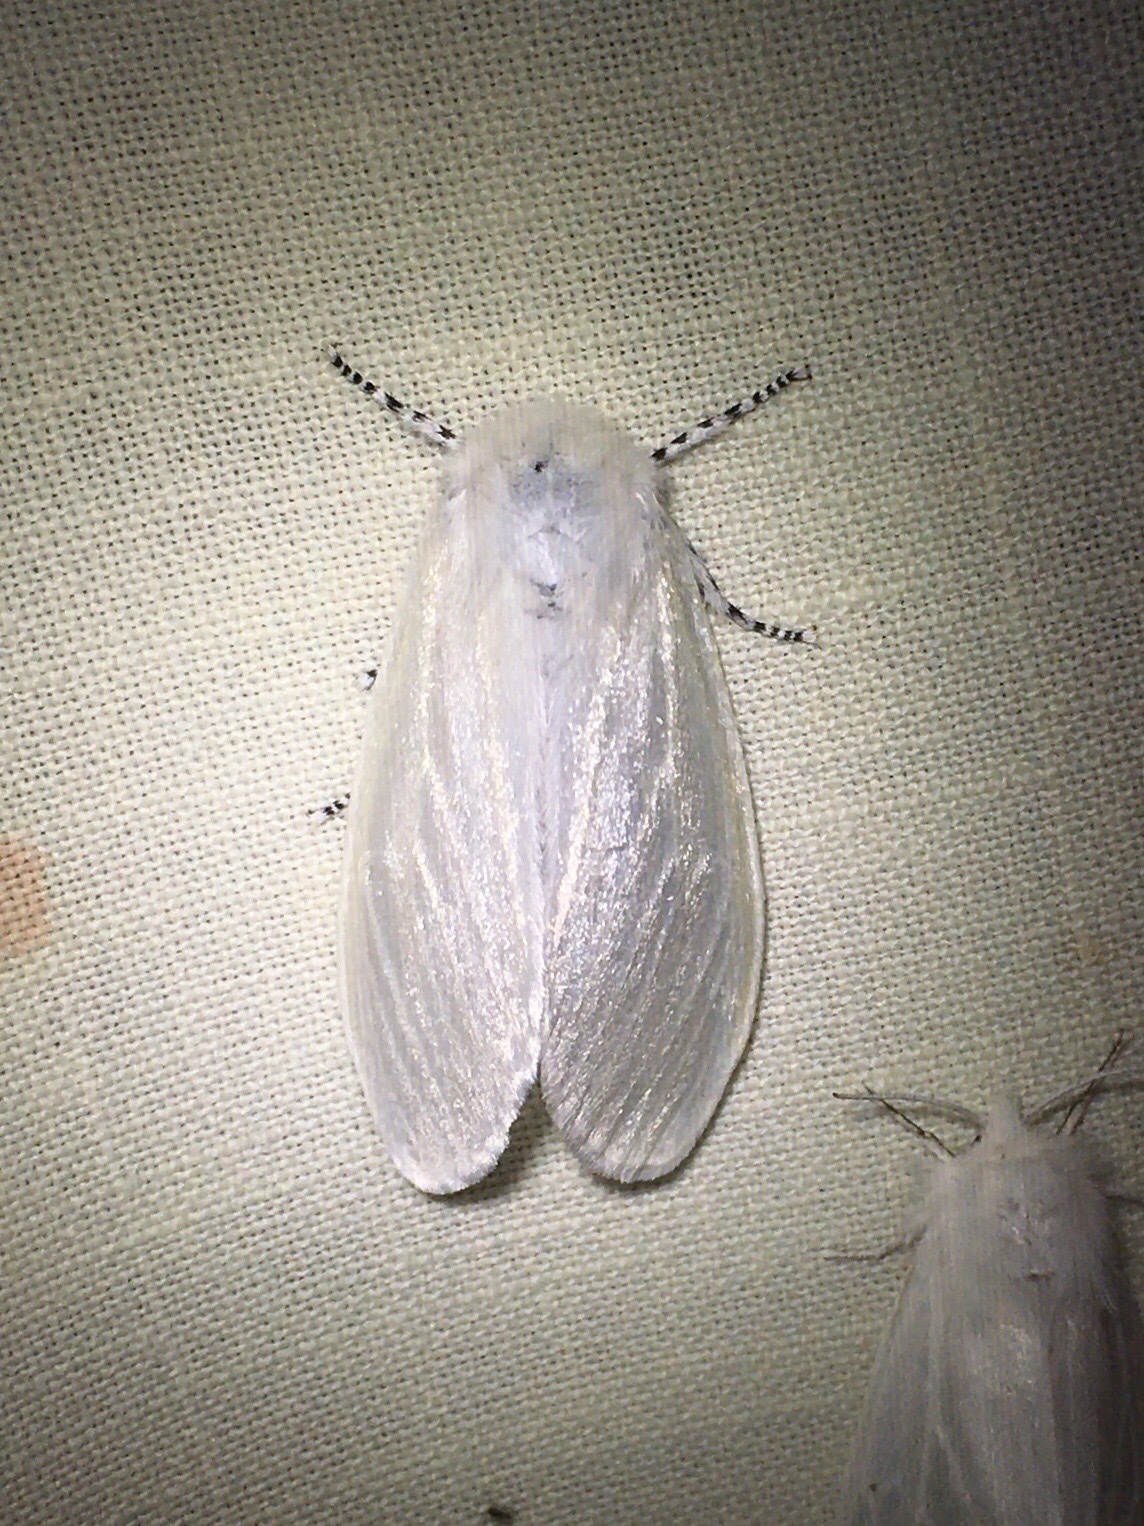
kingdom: Animalia
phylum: Arthropoda
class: Insecta
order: Lepidoptera
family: Erebidae
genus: Leucoma
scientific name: Leucoma salicis
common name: White satin moth
